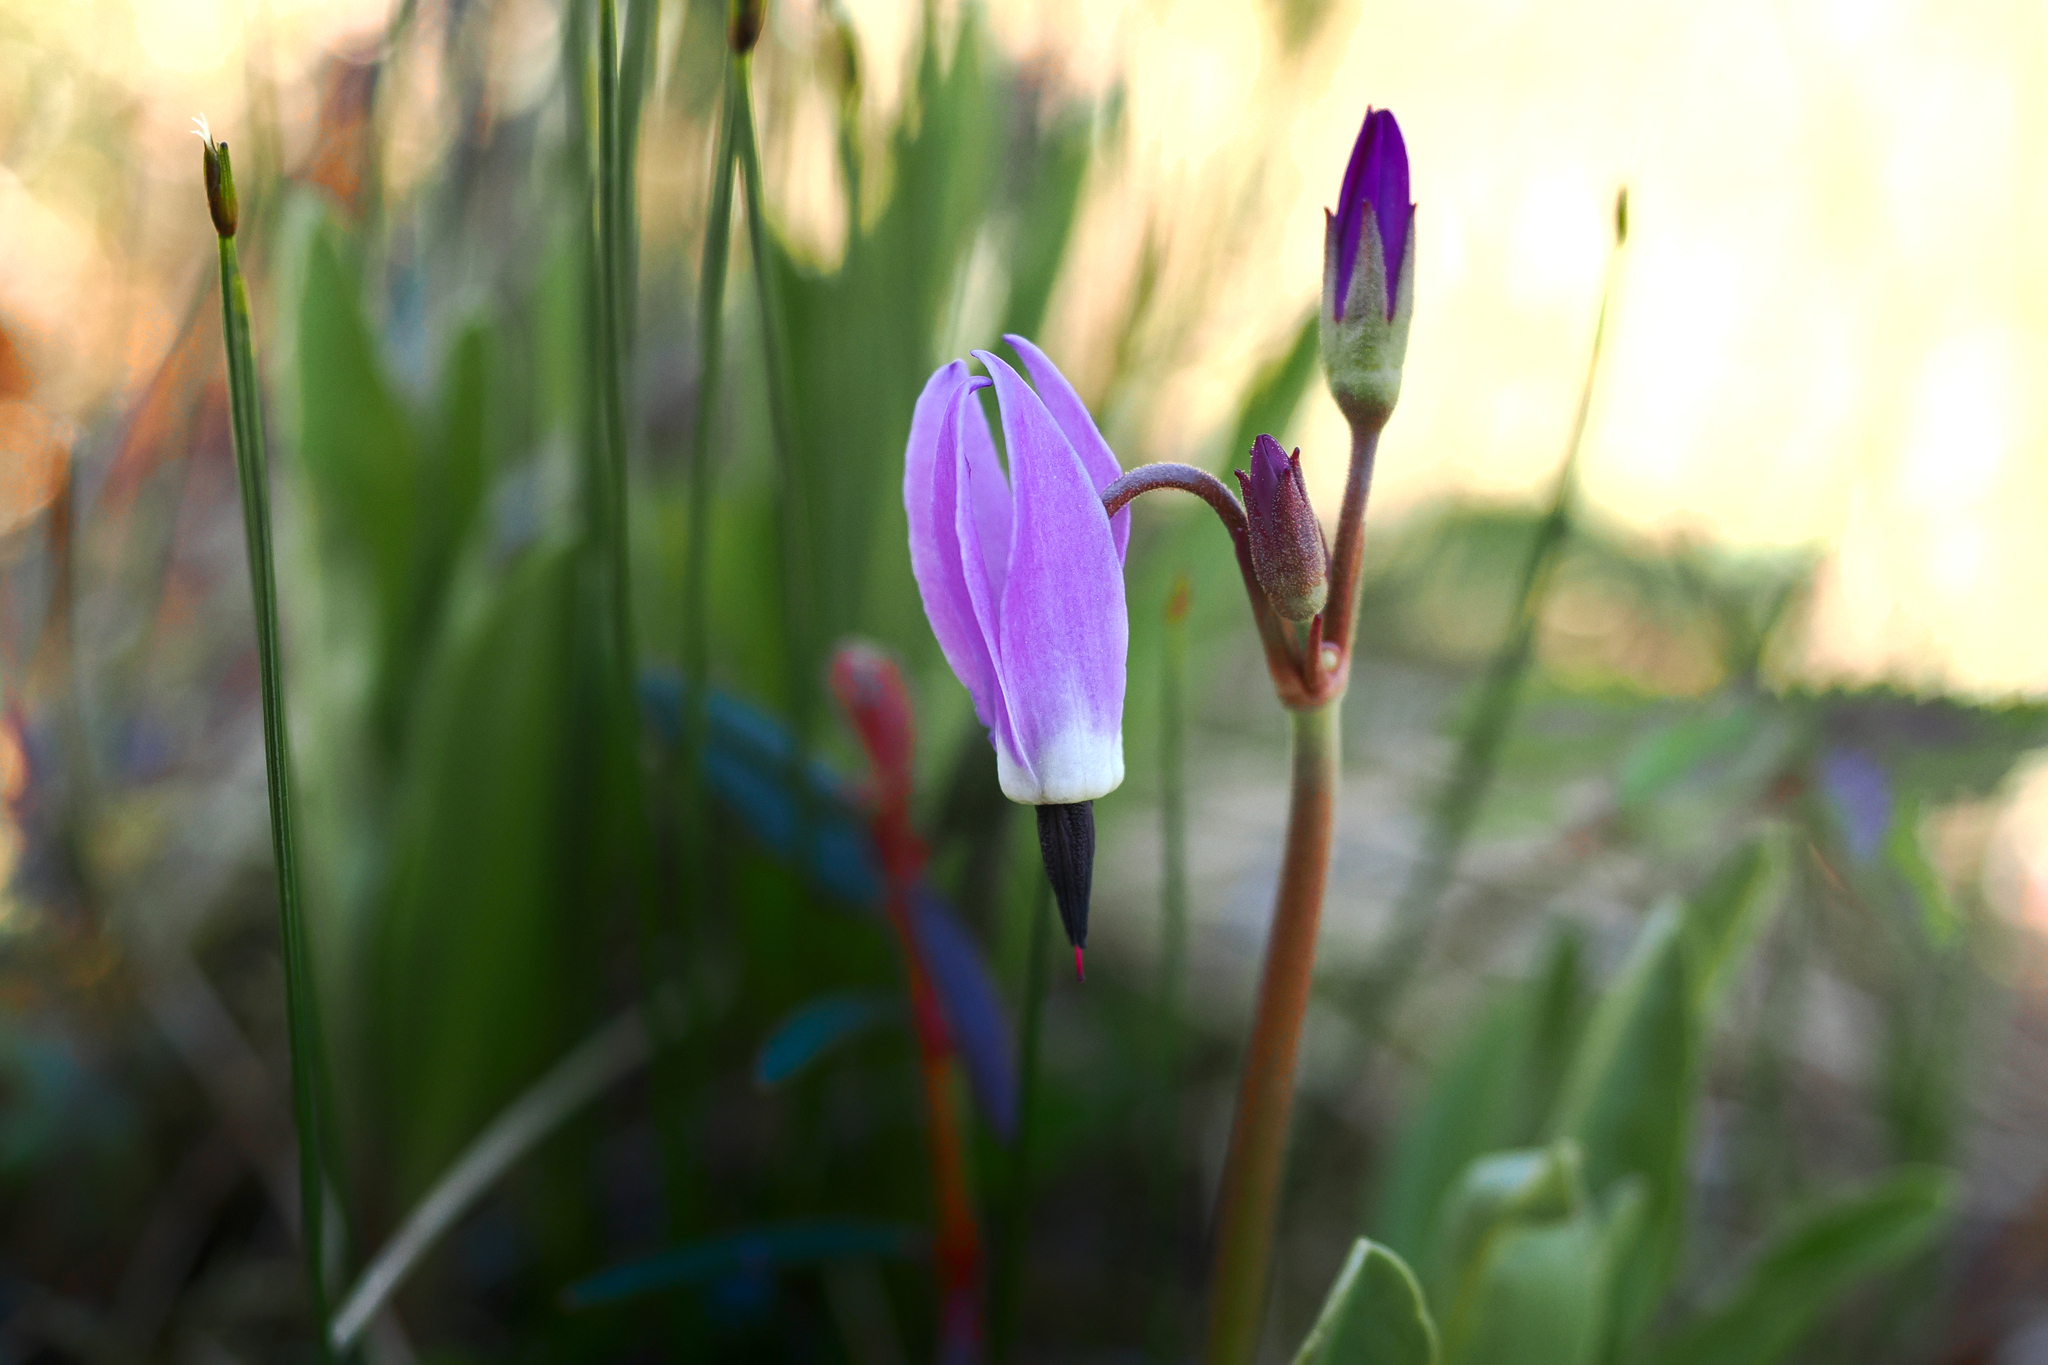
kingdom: Plantae
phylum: Tracheophyta
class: Magnoliopsida
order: Ericales
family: Primulaceae
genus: Dodecatheon
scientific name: Dodecatheon jeffreyanum
